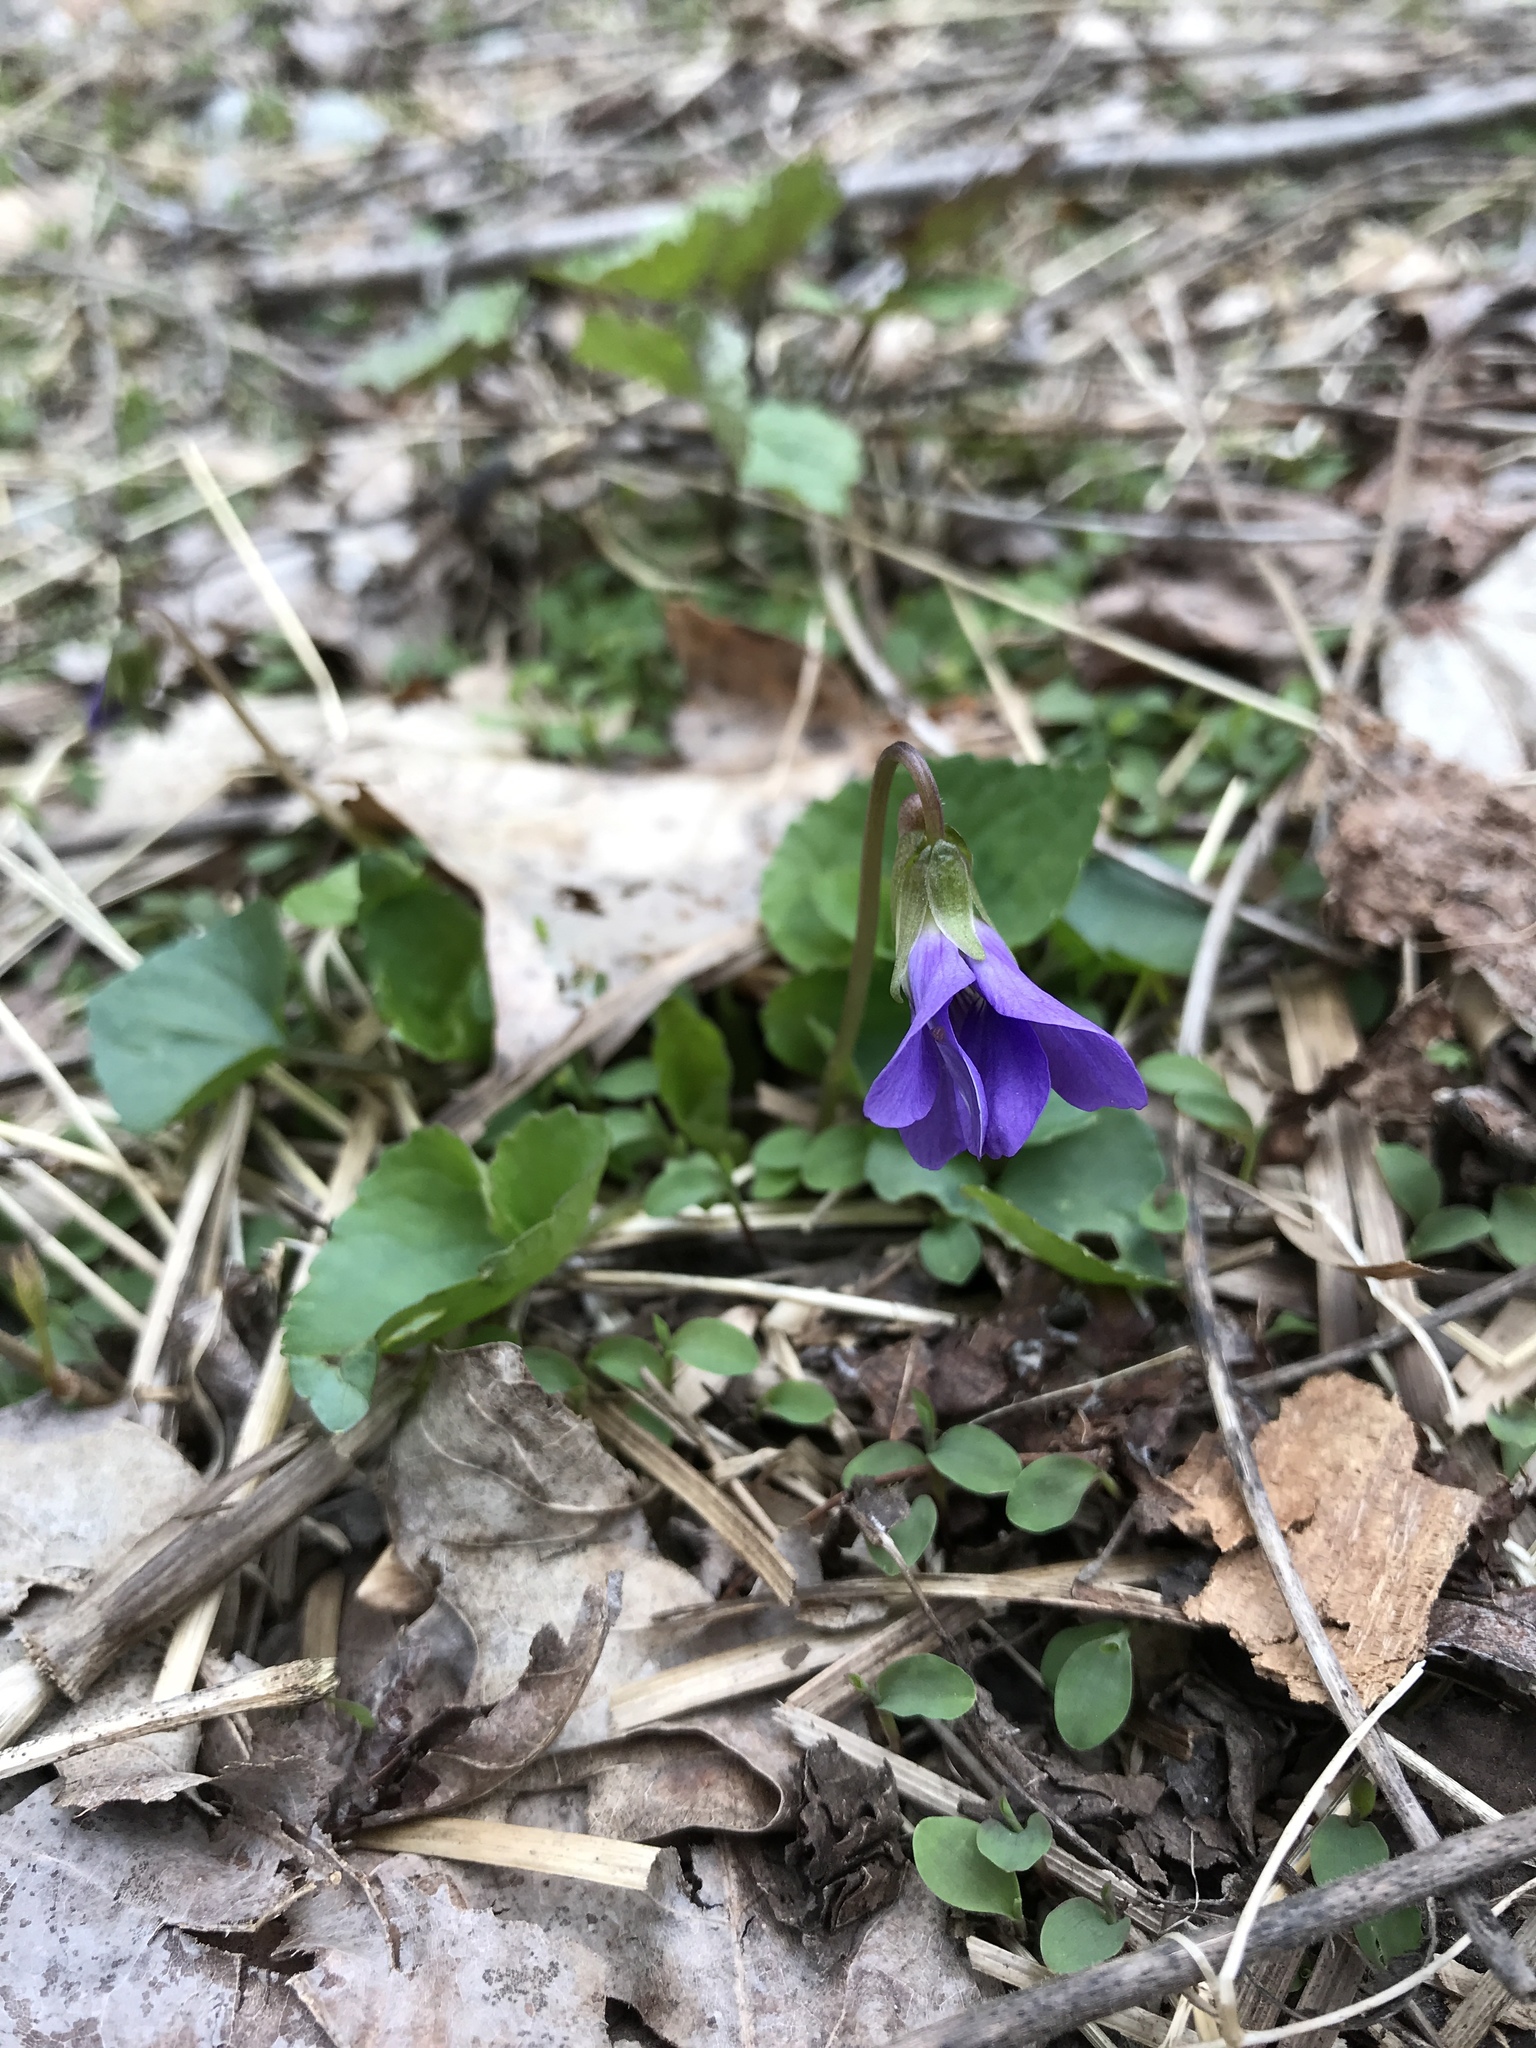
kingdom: Plantae
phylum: Tracheophyta
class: Magnoliopsida
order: Malpighiales
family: Violaceae
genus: Viola
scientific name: Viola sororia
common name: Dooryard violet
